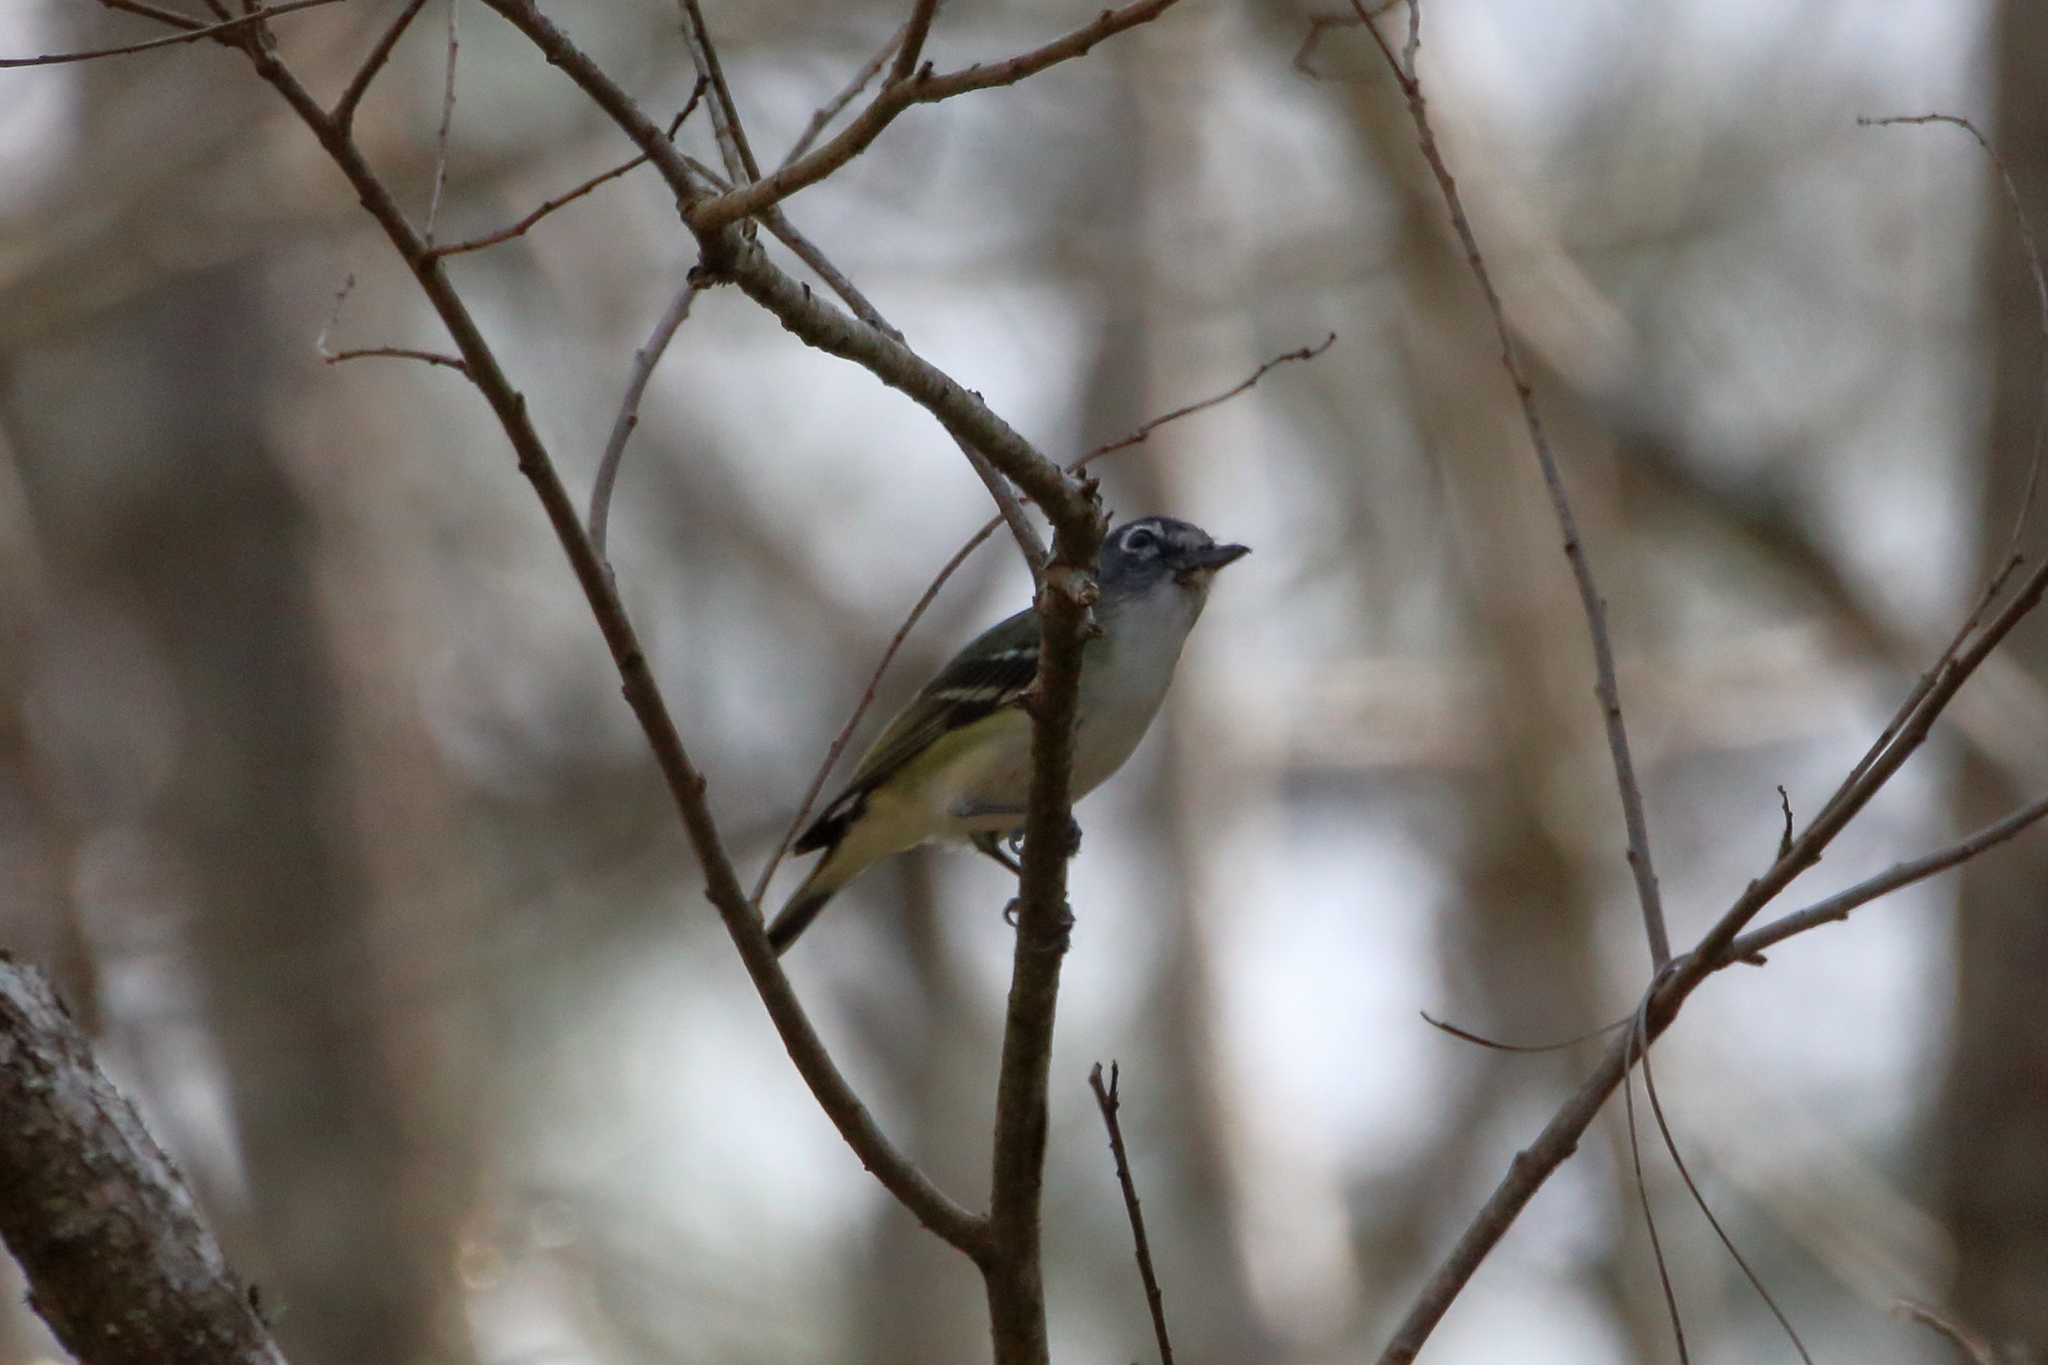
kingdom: Animalia
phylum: Chordata
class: Aves
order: Passeriformes
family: Vireonidae
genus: Vireo
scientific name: Vireo solitarius
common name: Blue-headed vireo
